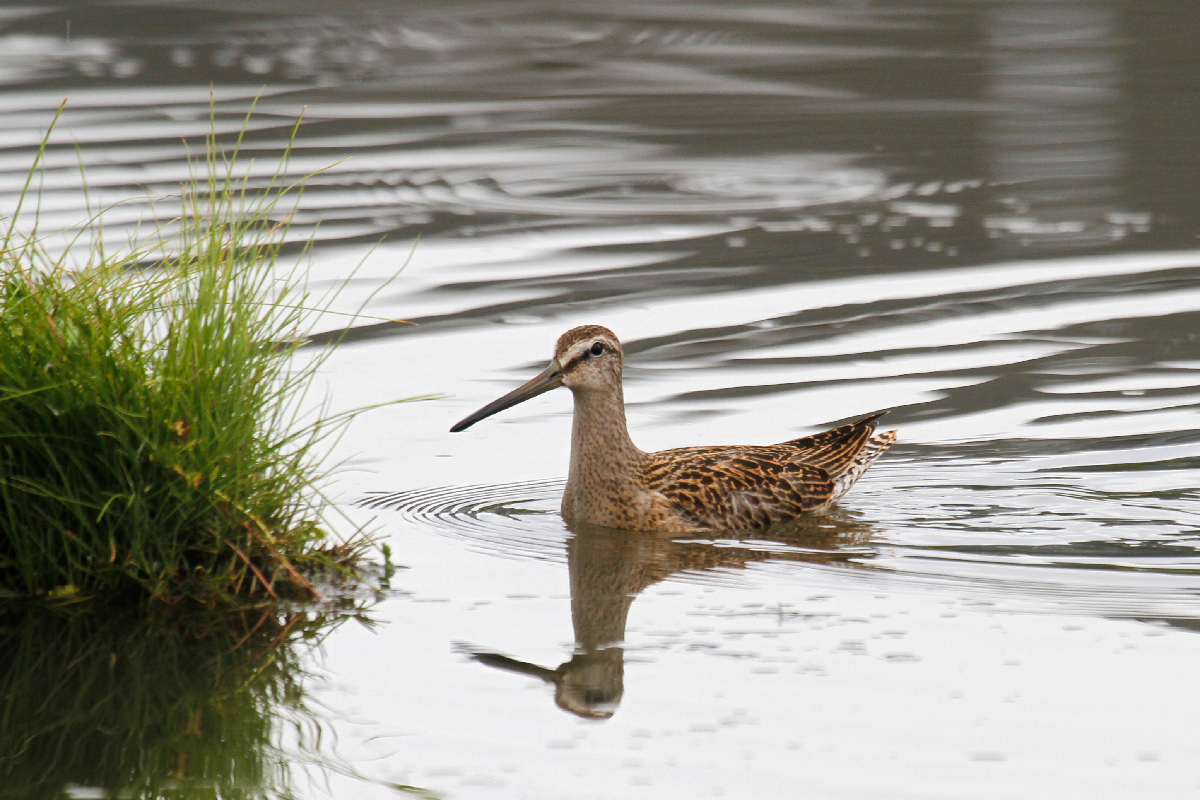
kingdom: Animalia
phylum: Chordata
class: Aves
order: Charadriiformes
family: Scolopacidae
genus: Limnodromus
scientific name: Limnodromus griseus
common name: Short-billed dowitcher
